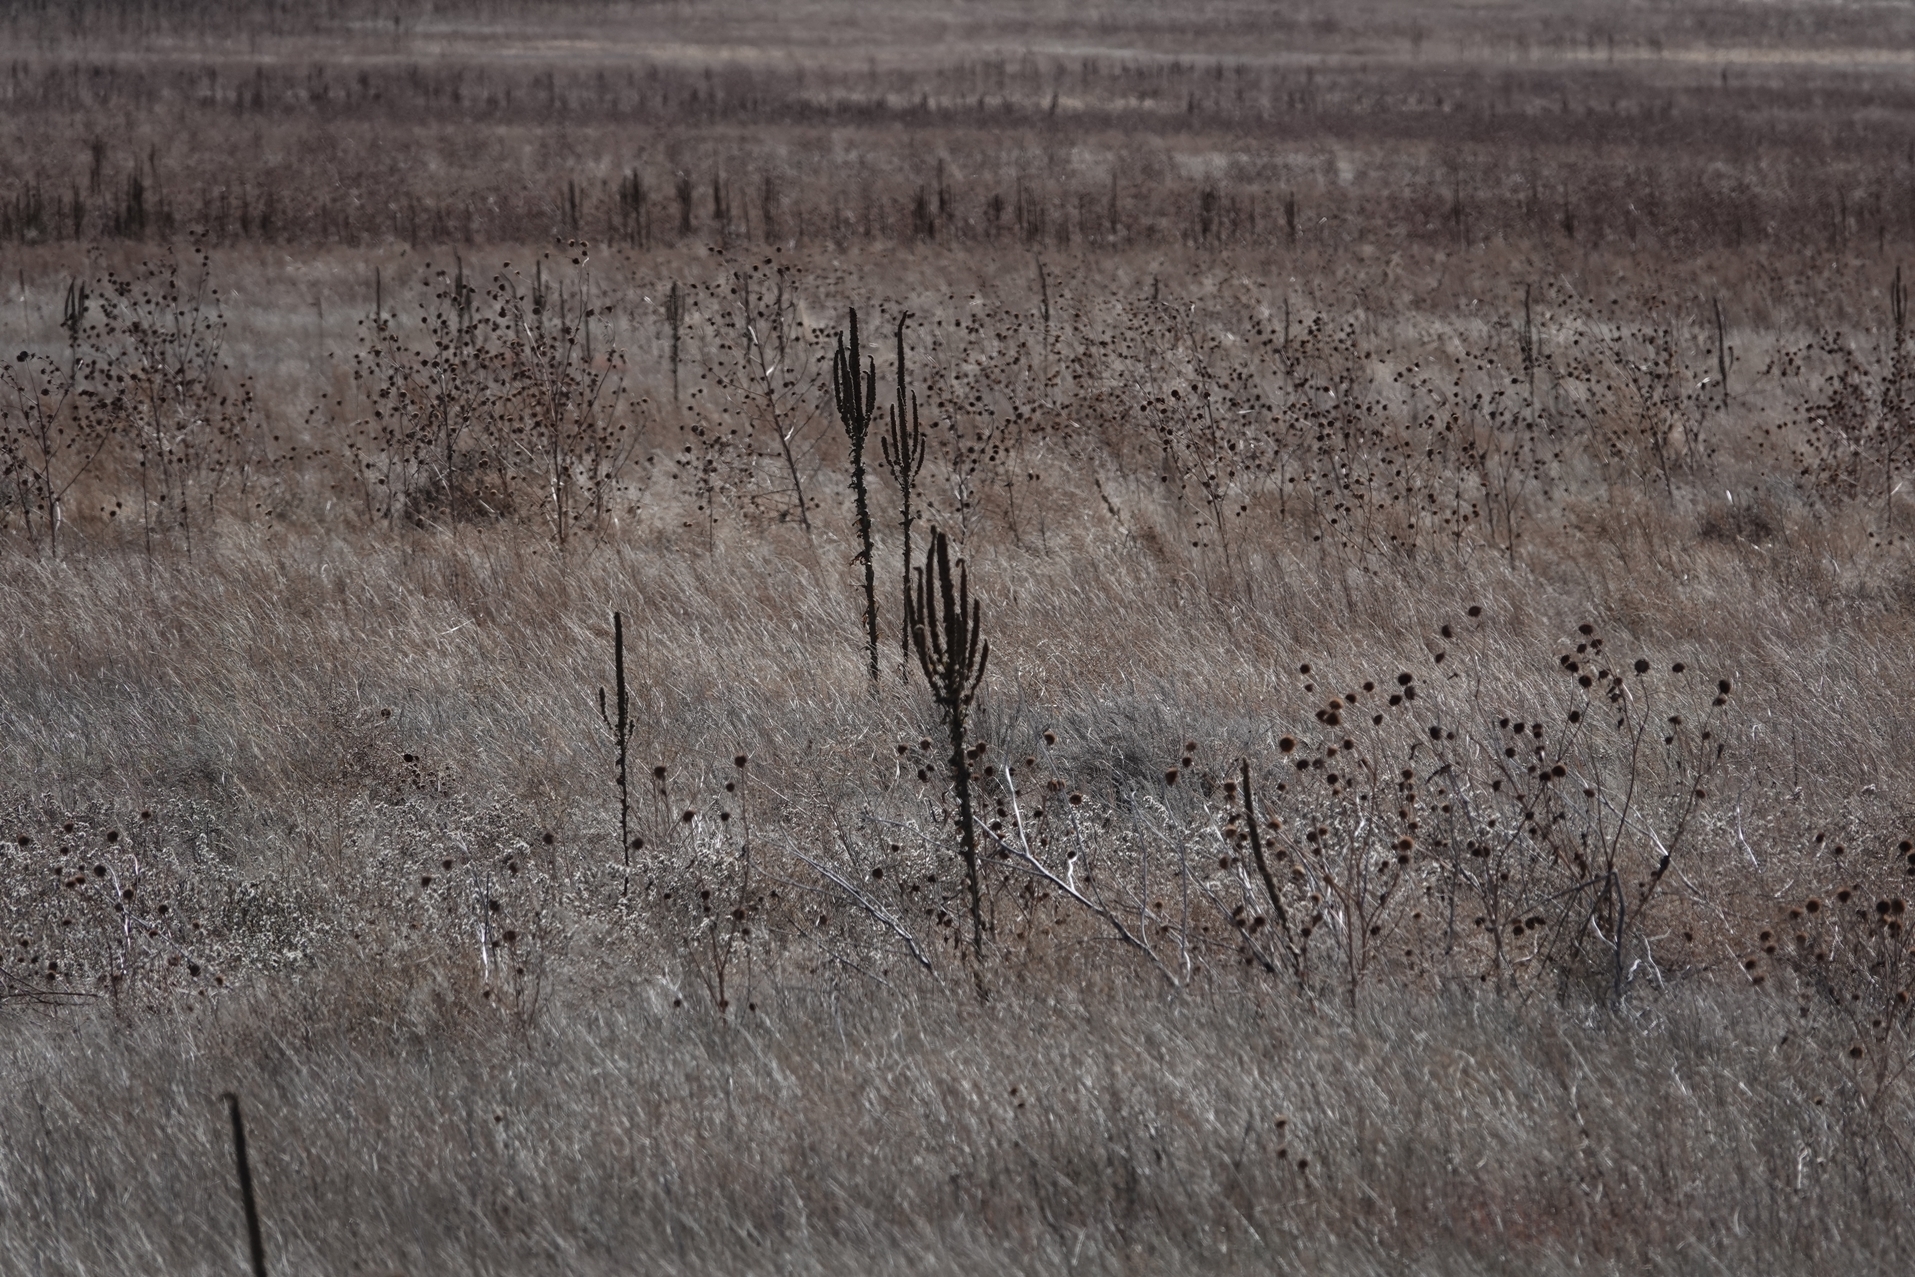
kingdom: Plantae
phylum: Tracheophyta
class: Magnoliopsida
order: Lamiales
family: Scrophulariaceae
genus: Verbascum
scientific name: Verbascum thapsus
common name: Common mullein
